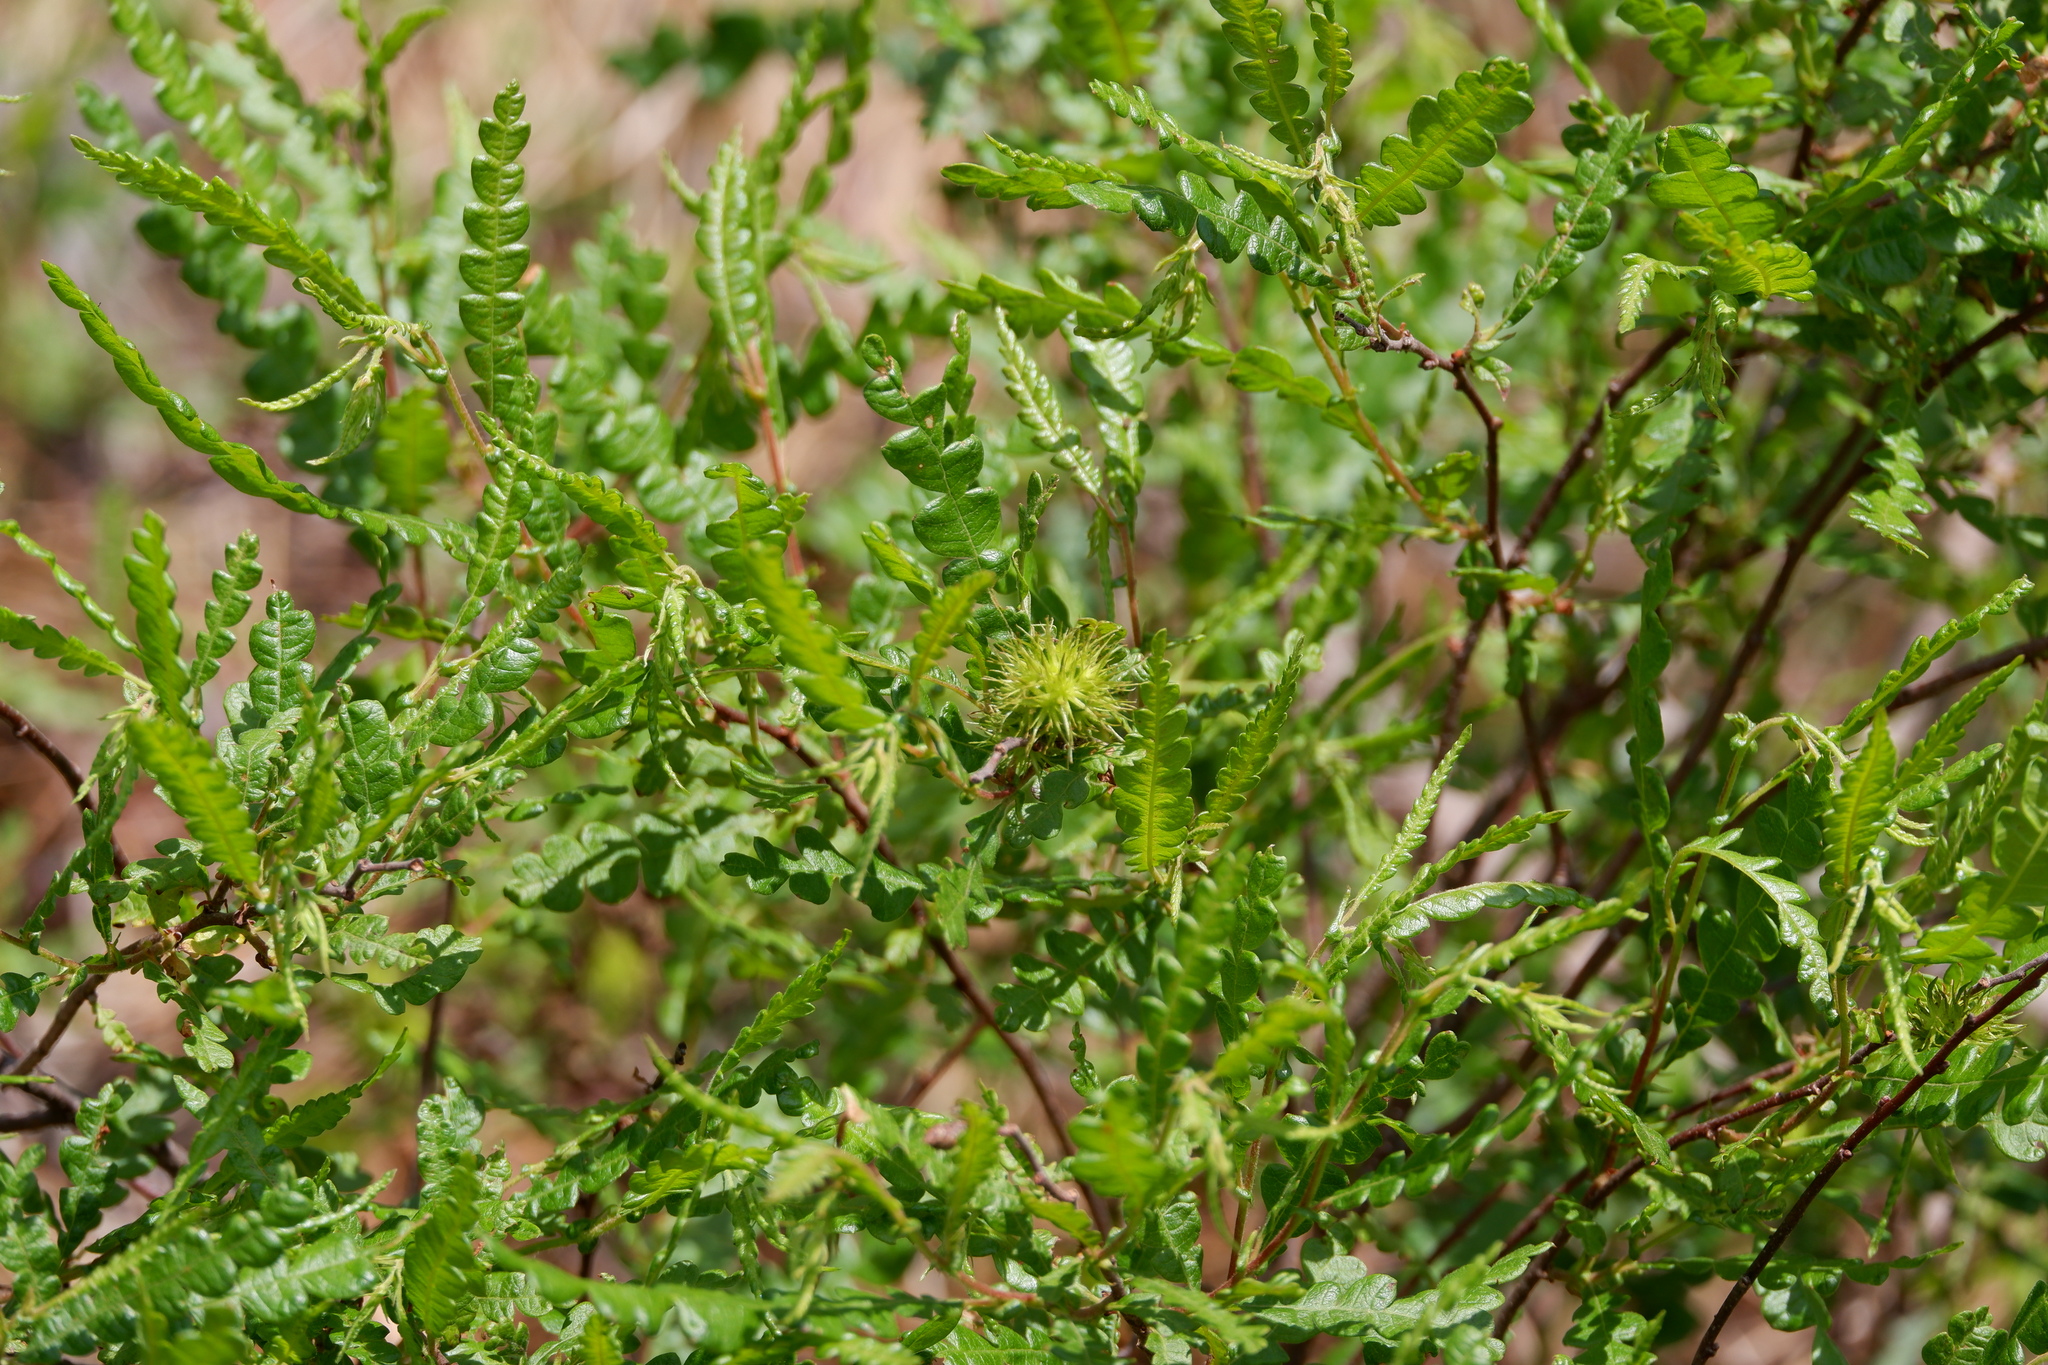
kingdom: Plantae
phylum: Tracheophyta
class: Magnoliopsida
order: Fagales
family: Myricaceae
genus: Comptonia
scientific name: Comptonia peregrina
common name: Sweet-fern
